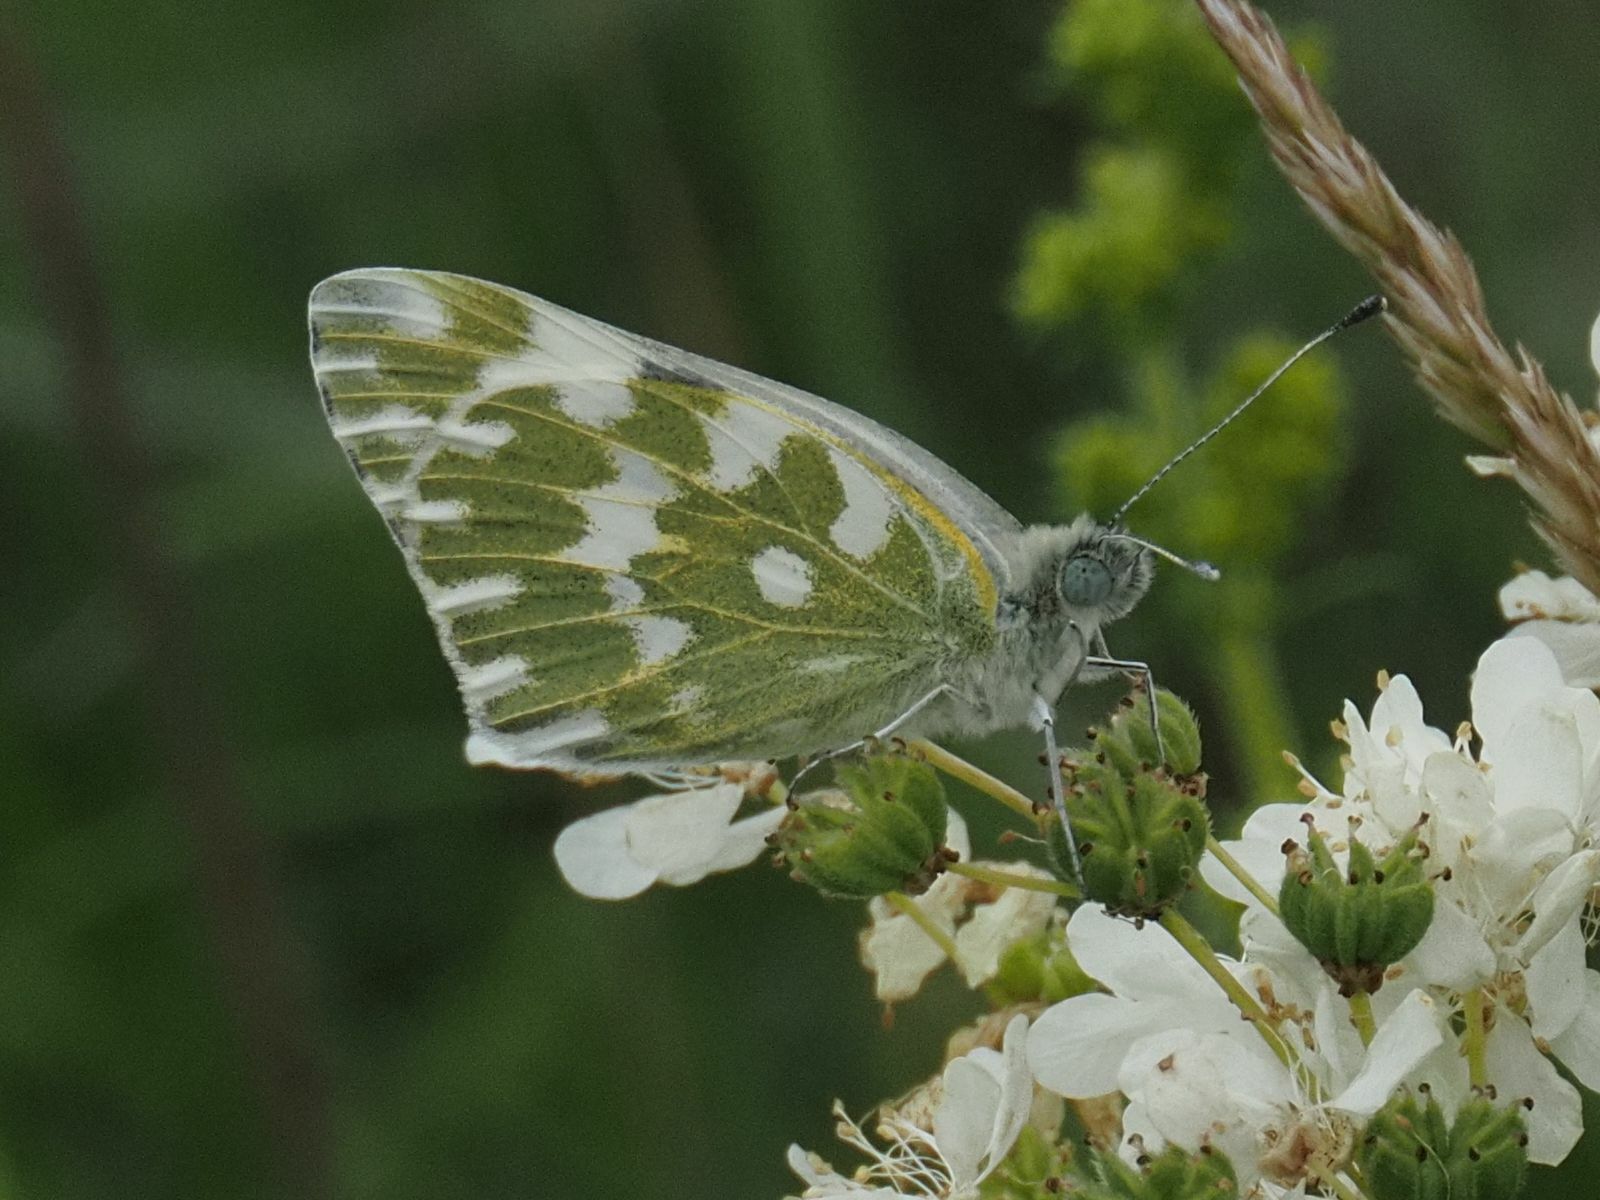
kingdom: Animalia
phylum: Arthropoda
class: Insecta
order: Lepidoptera
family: Pieridae
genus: Pontia
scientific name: Pontia edusa
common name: Eastern bath white
